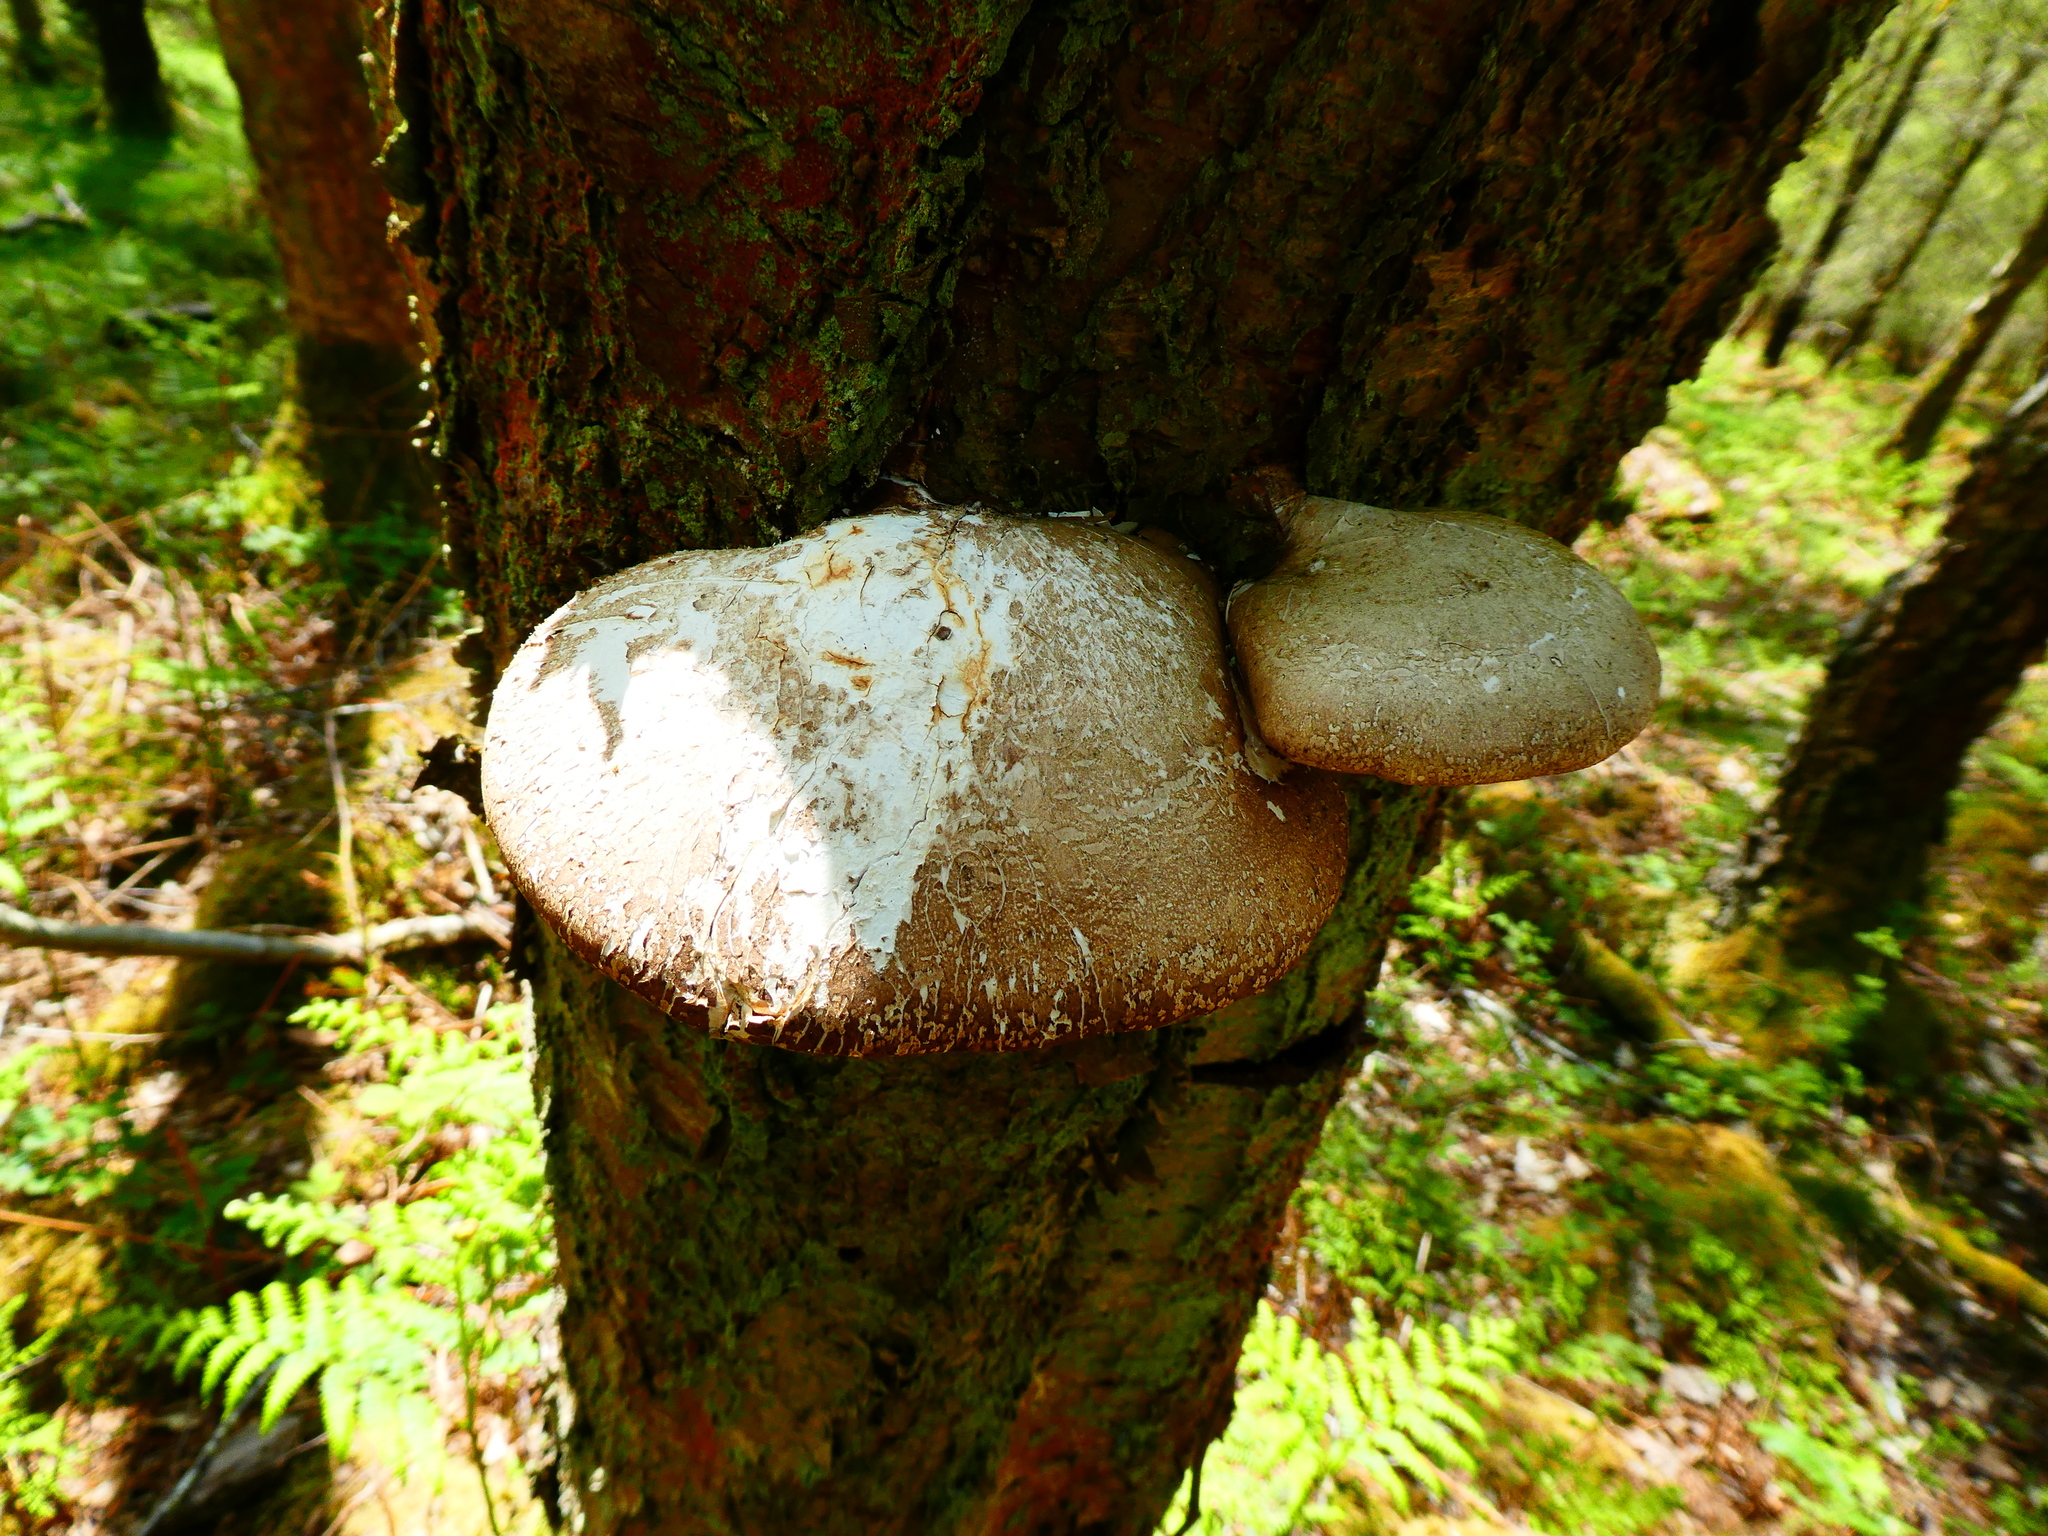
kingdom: Fungi
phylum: Basidiomycota
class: Agaricomycetes
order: Polyporales
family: Fomitopsidaceae
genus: Fomitopsis
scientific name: Fomitopsis betulina
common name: Birch polypore
